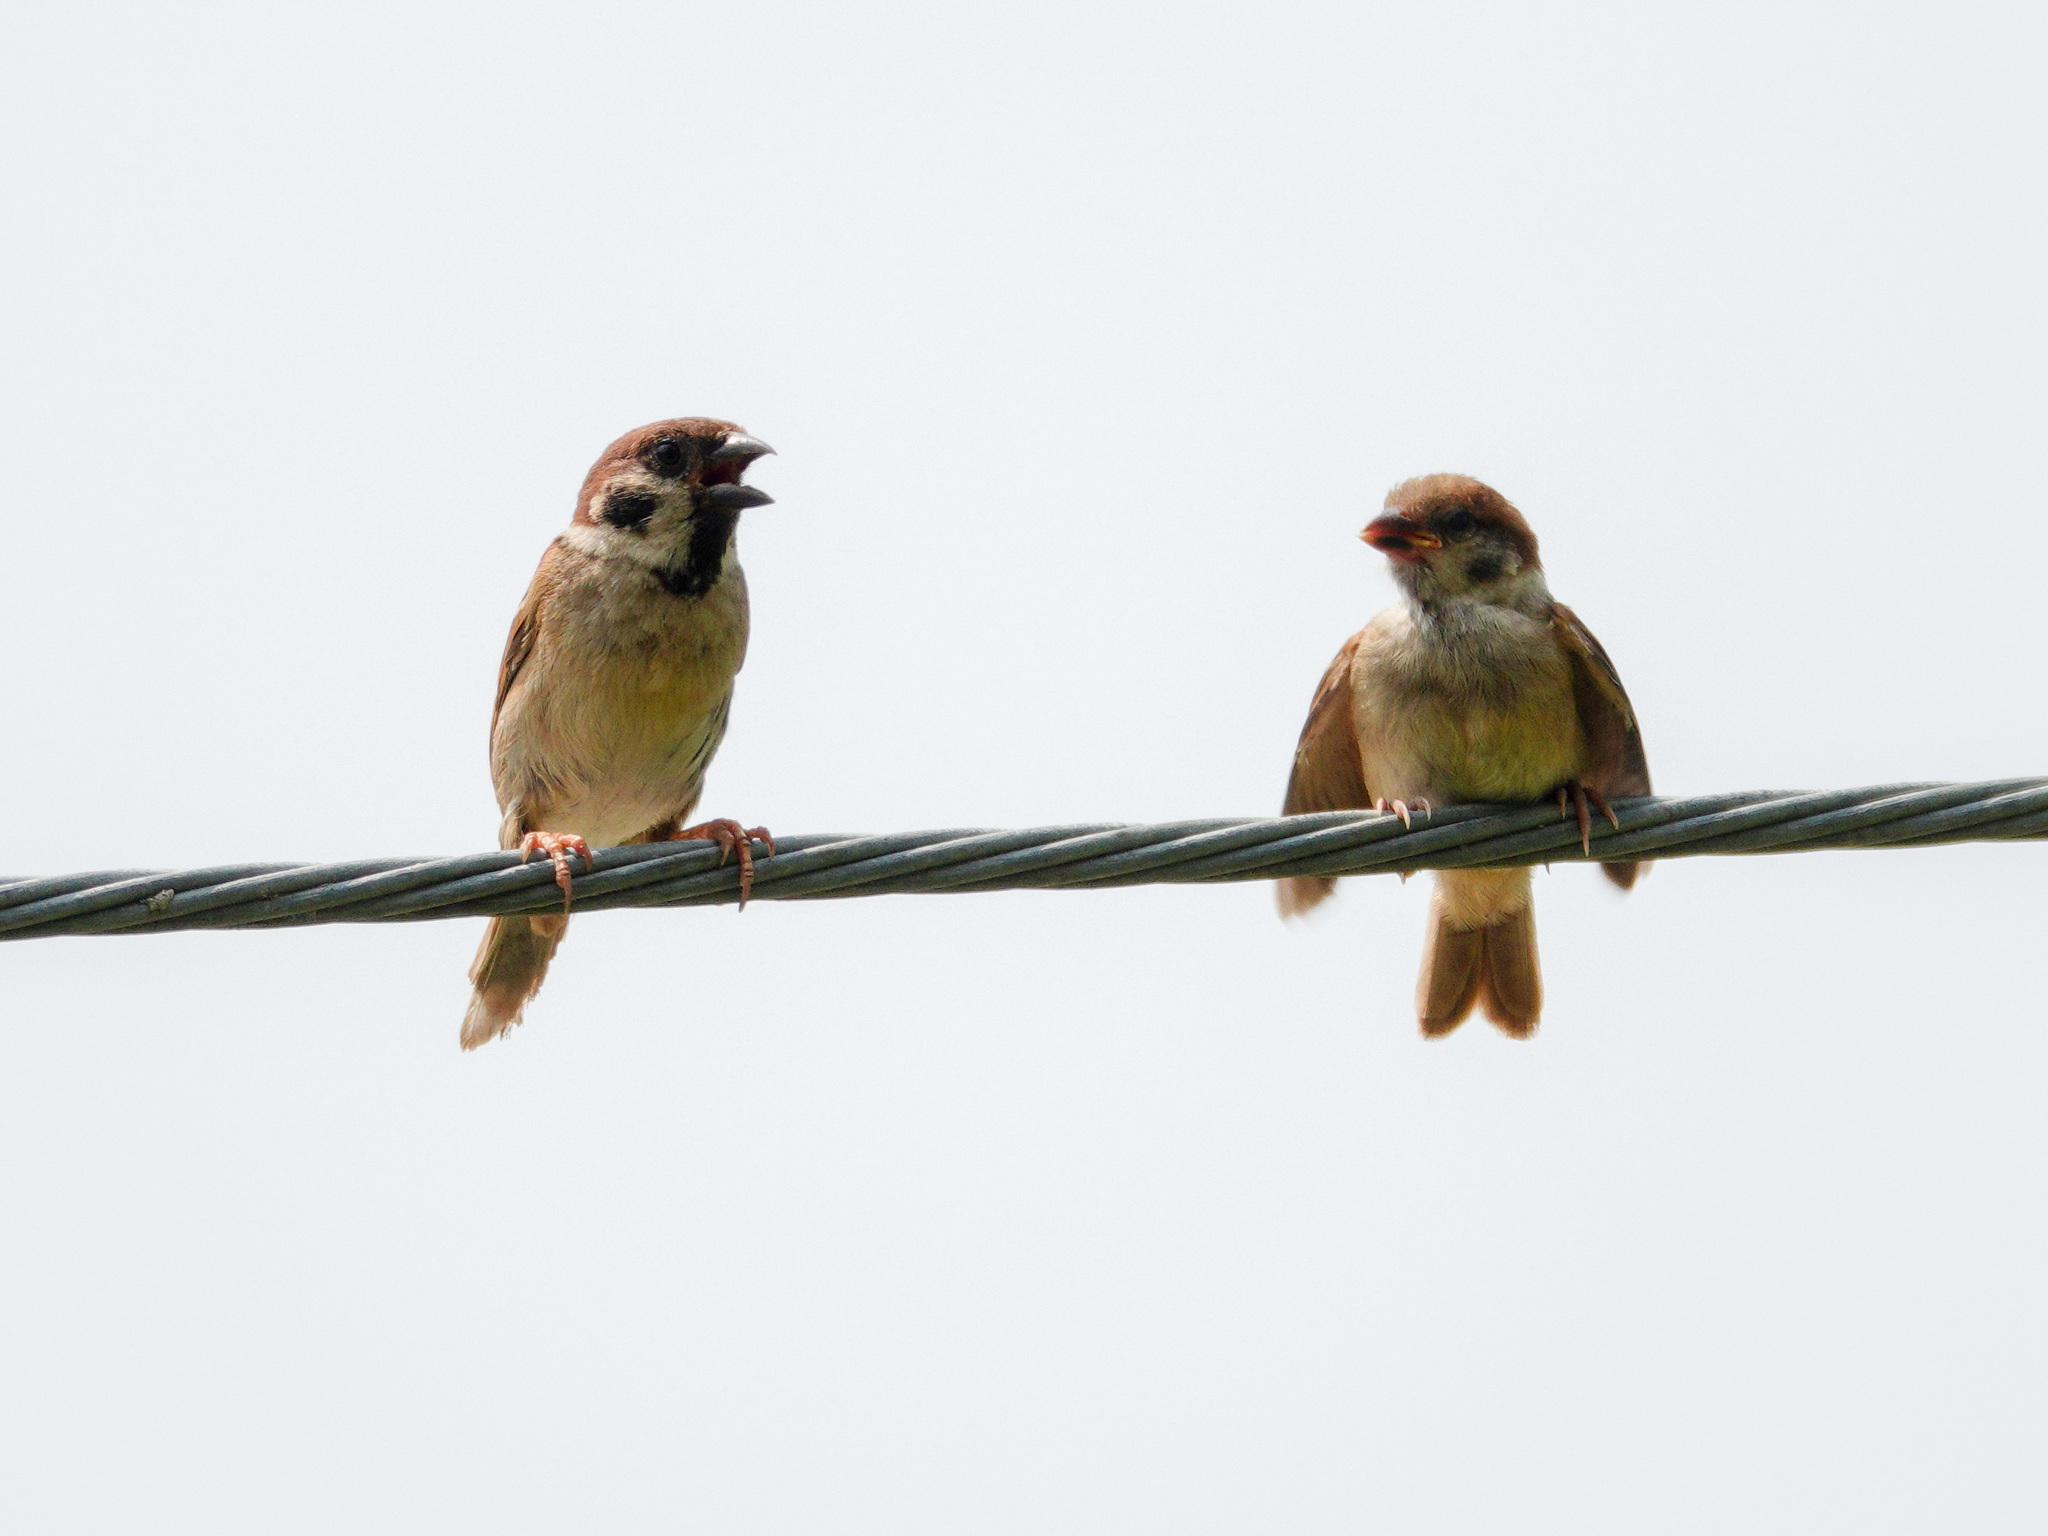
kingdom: Animalia
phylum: Chordata
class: Aves
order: Passeriformes
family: Passeridae
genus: Passer
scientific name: Passer montanus
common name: Eurasian tree sparrow
